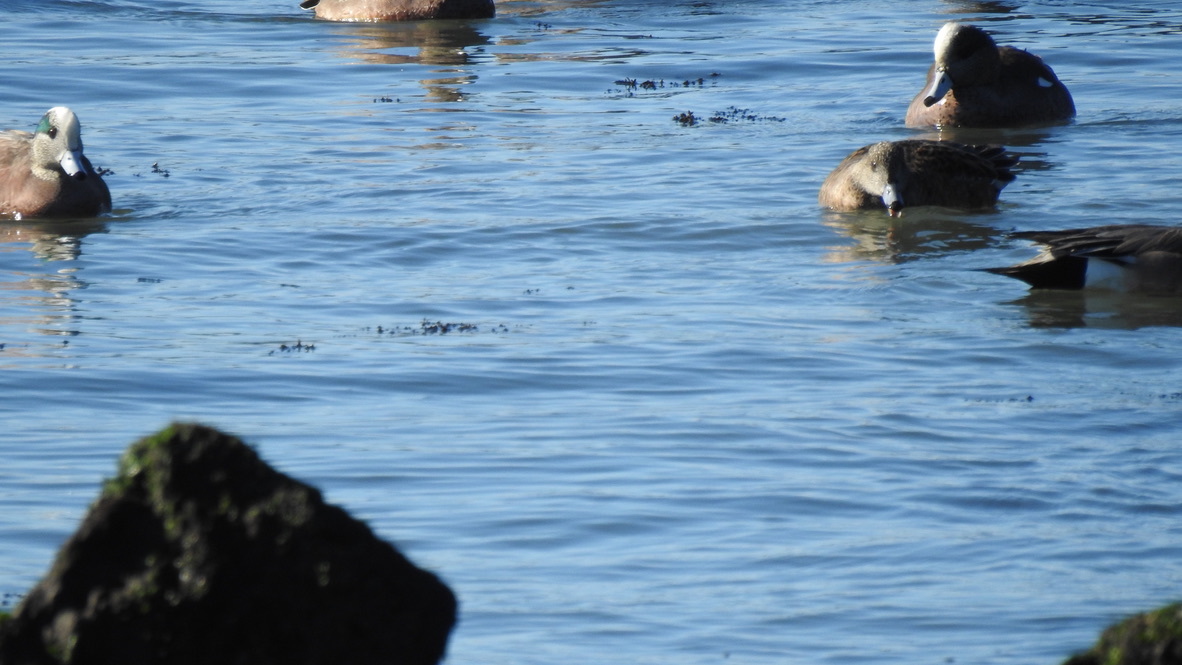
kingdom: Animalia
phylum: Chordata
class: Aves
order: Anseriformes
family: Anatidae
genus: Mareca
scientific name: Mareca americana
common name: American wigeon
